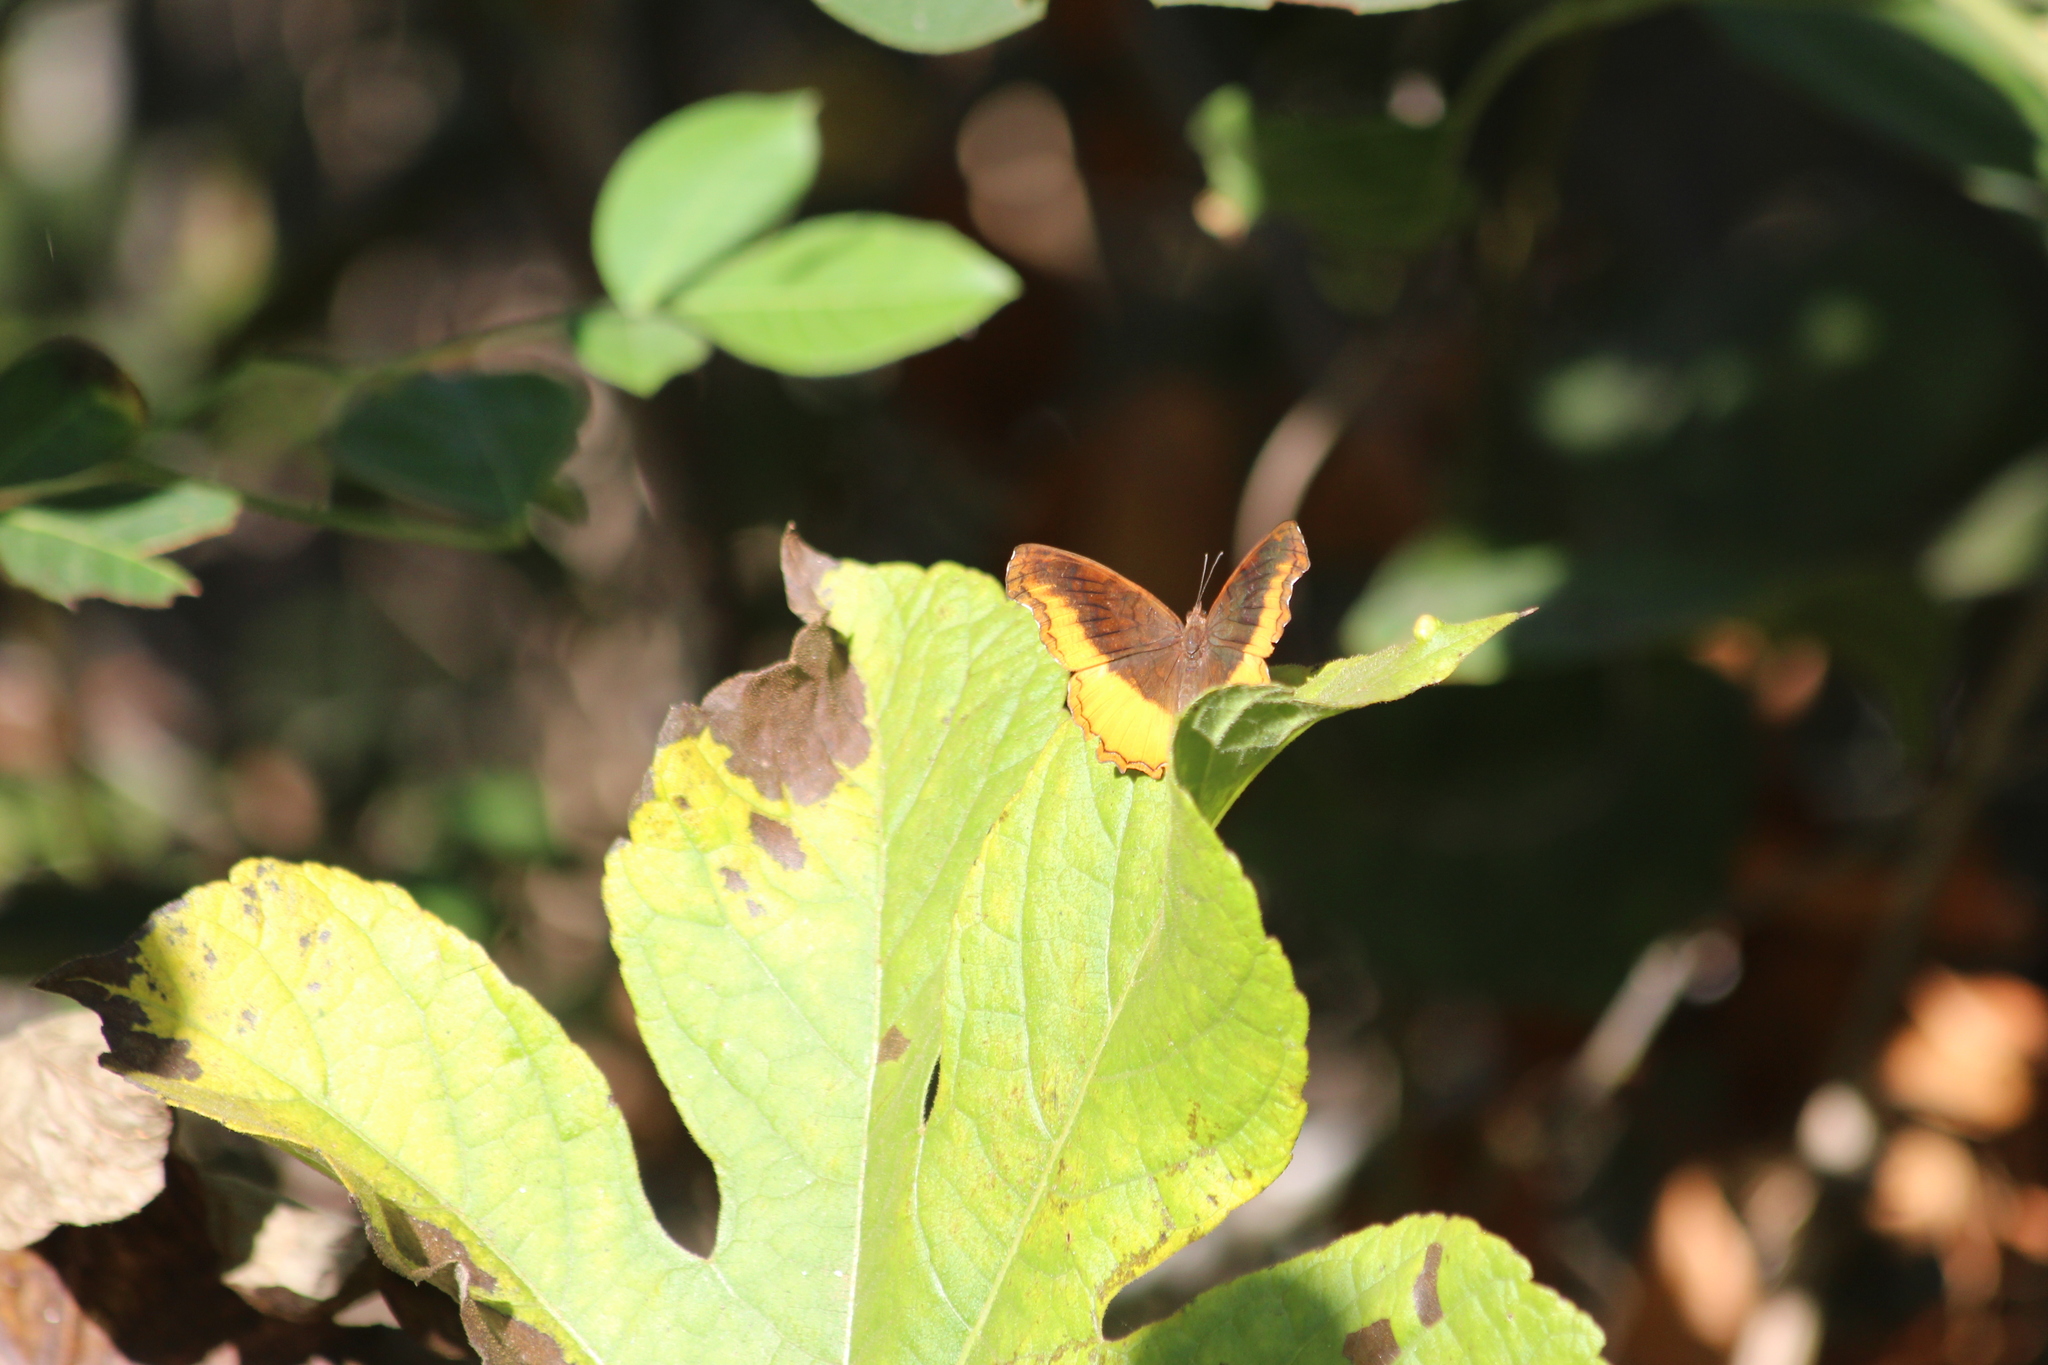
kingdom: Animalia
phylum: Arthropoda
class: Insecta
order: Lepidoptera
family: Nymphalidae
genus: Eurytela
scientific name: Eurytela dryope
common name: Golden piper
